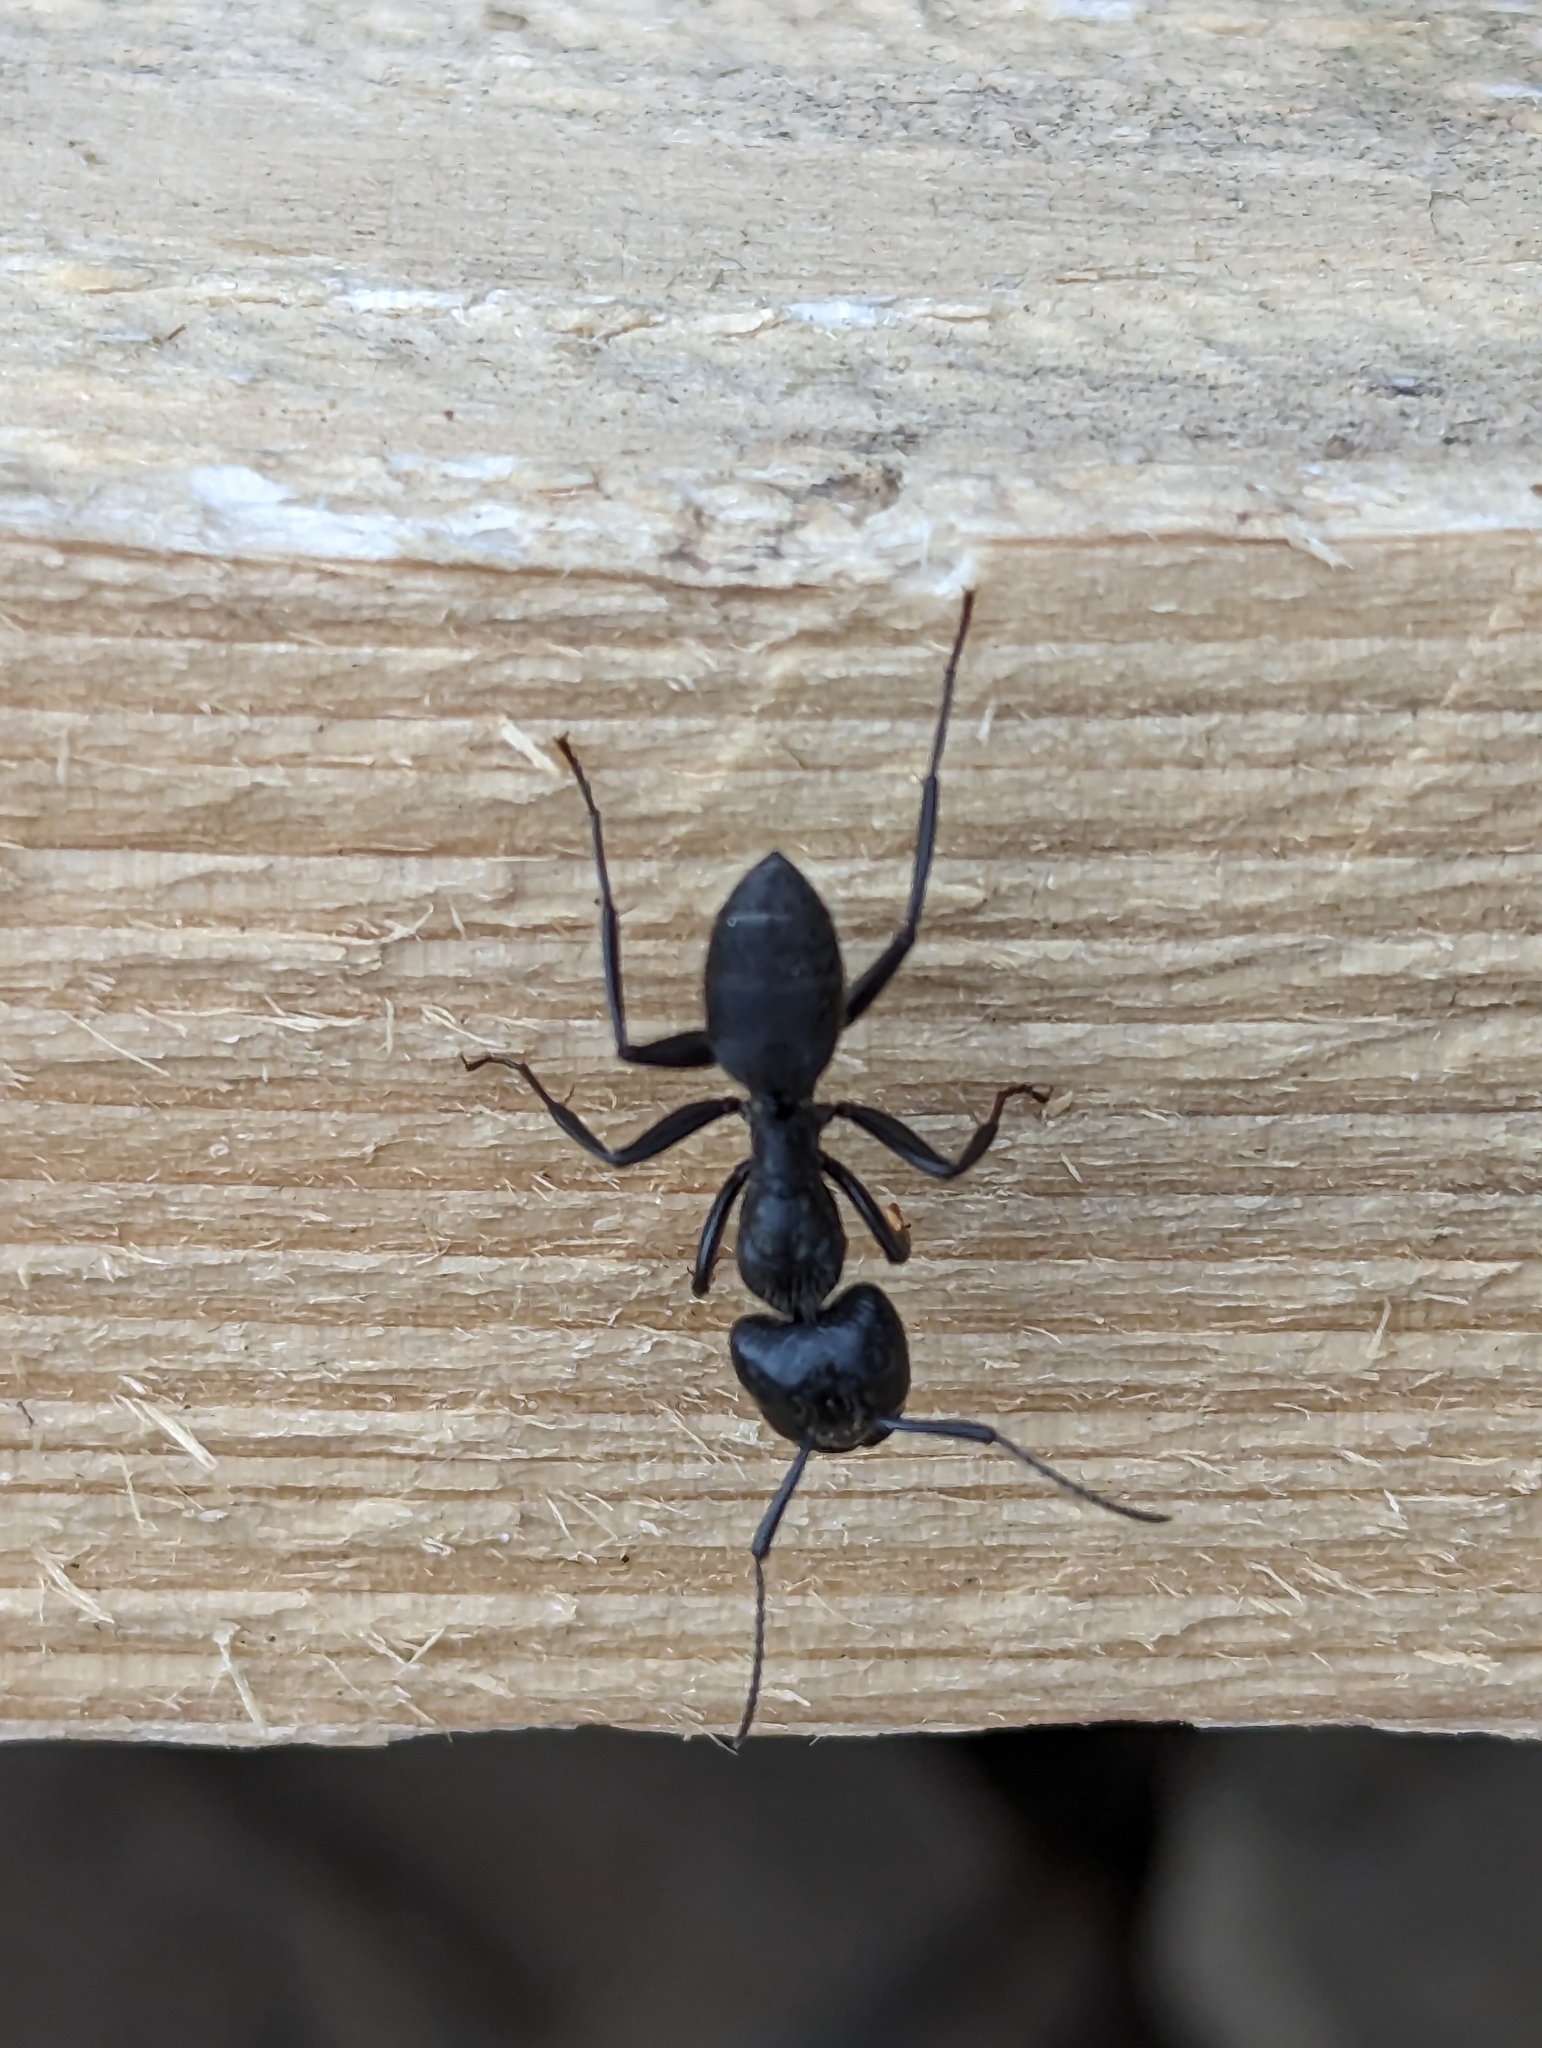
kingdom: Animalia
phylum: Arthropoda
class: Insecta
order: Hymenoptera
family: Formicidae
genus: Camponotus
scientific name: Camponotus vagus
